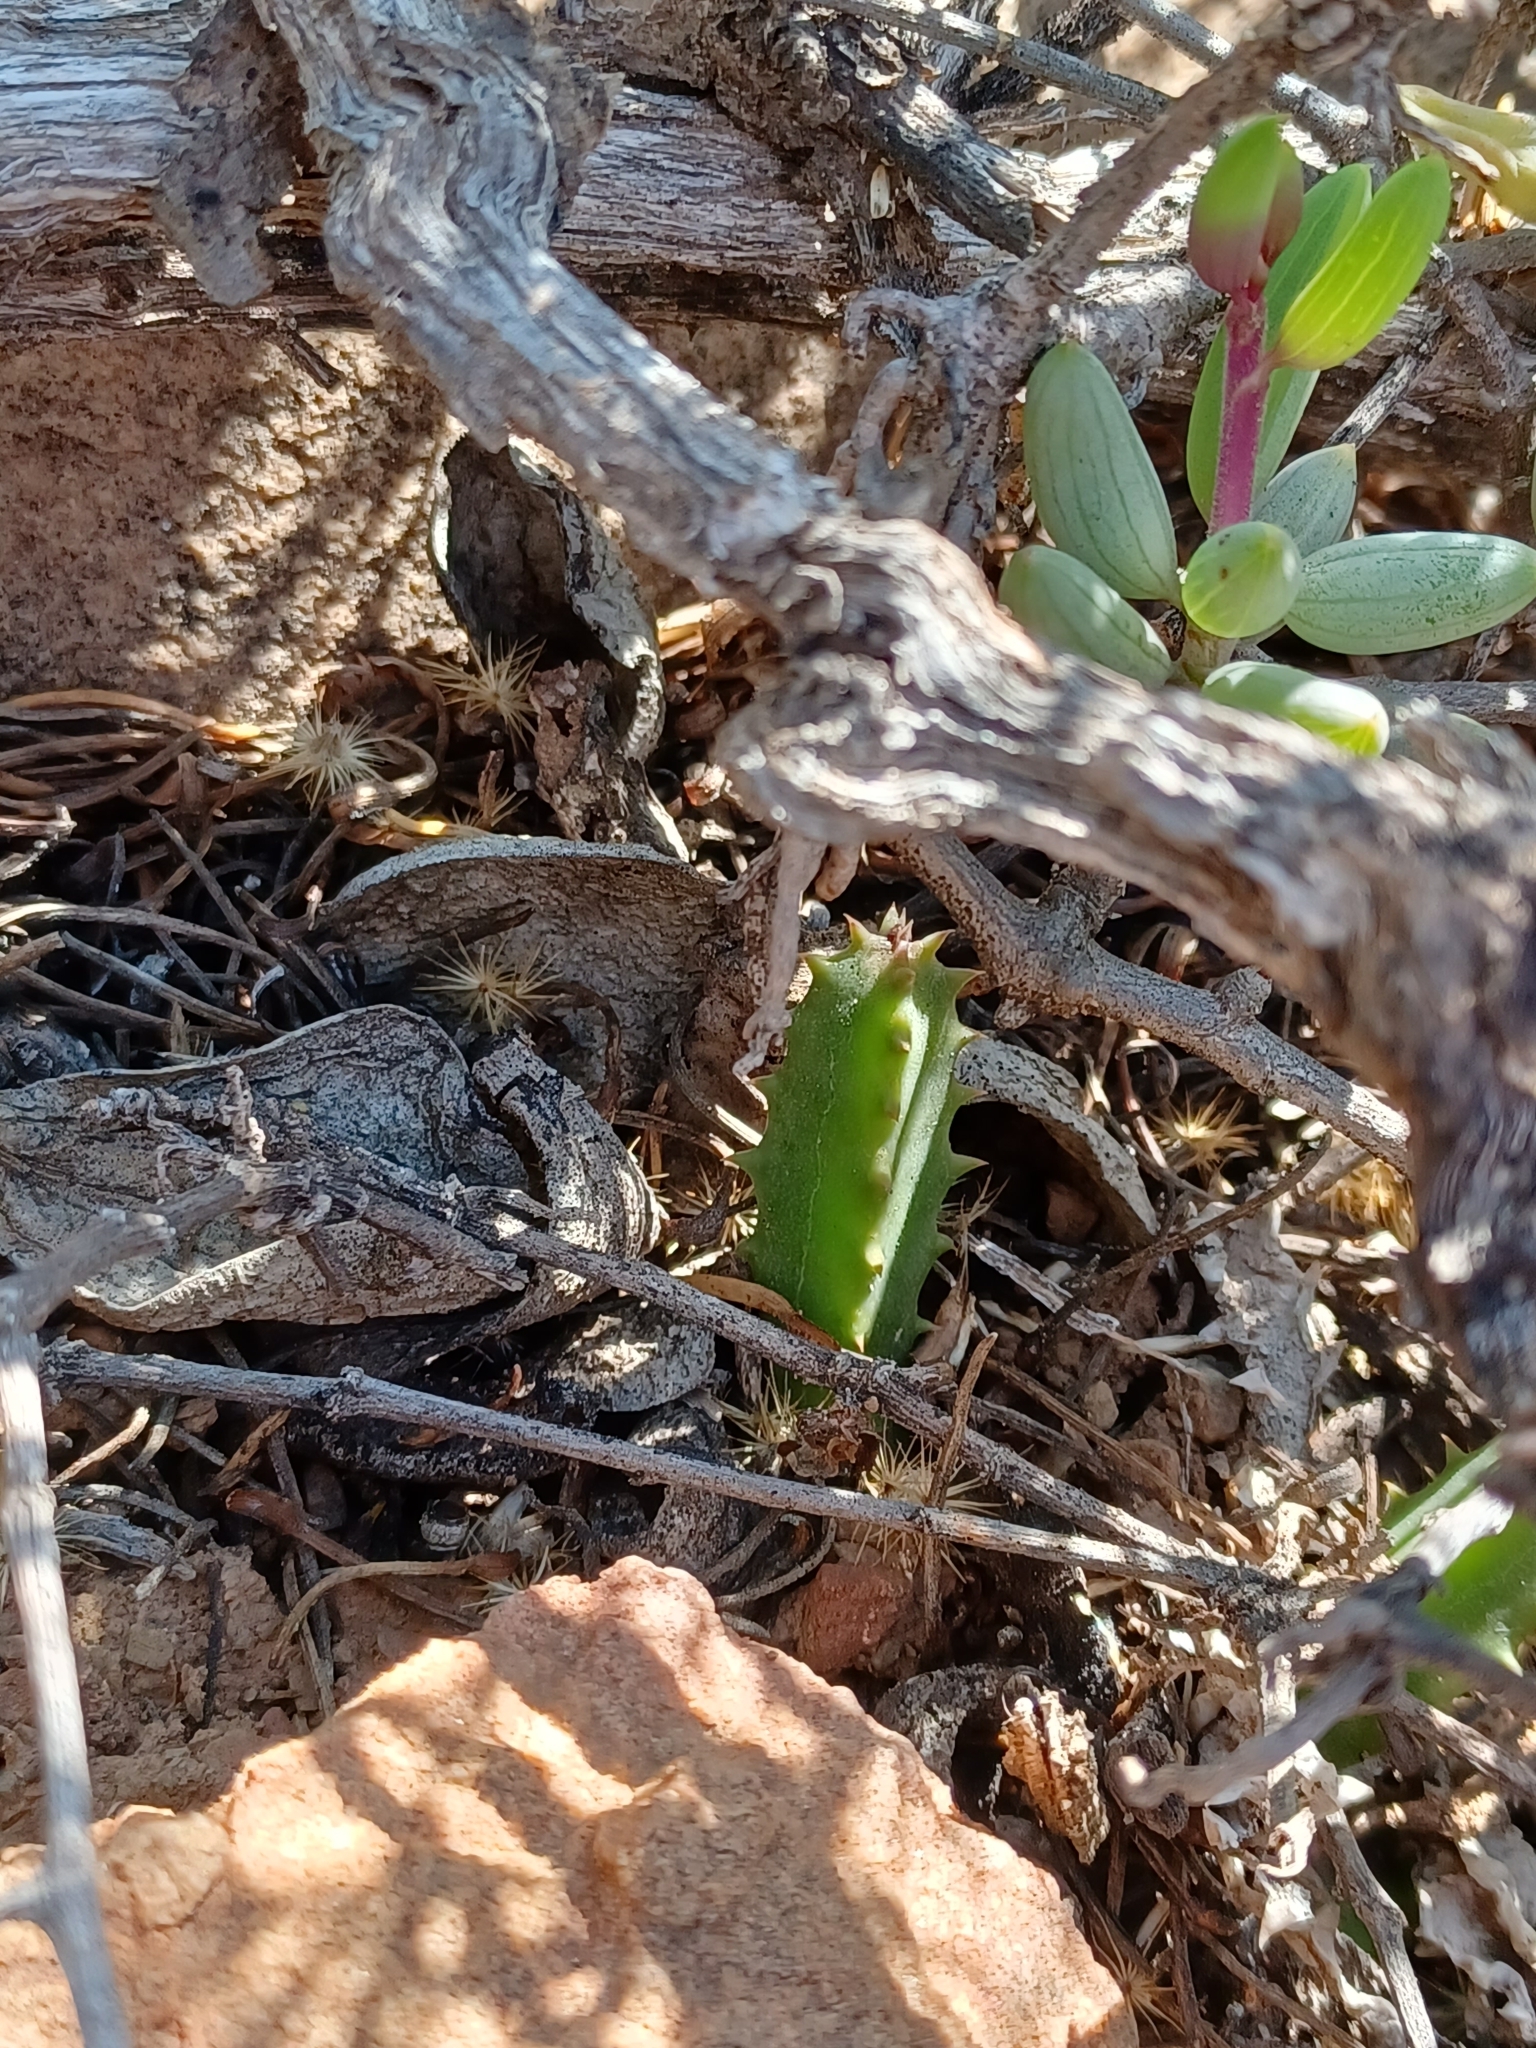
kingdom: Plantae
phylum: Tracheophyta
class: Magnoliopsida
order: Gentianales
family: Apocynaceae
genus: Ceropegia
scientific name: Ceropegia tulipiflora
